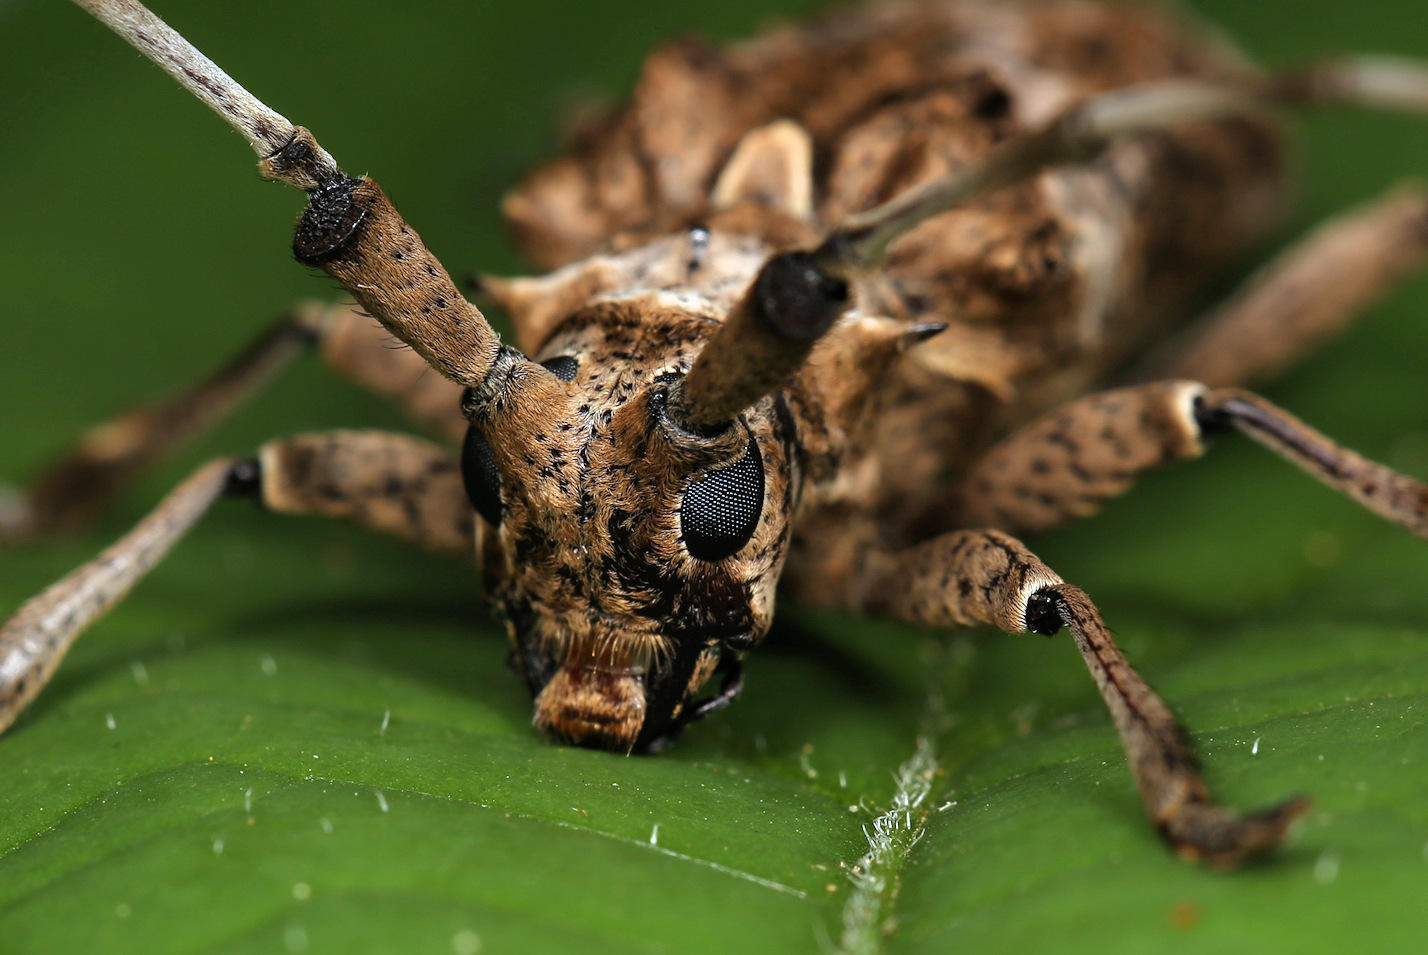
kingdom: Animalia
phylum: Arthropoda
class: Insecta
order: Coleoptera
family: Cerambycidae
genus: Monochamus
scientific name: Monochamus spectabilis
